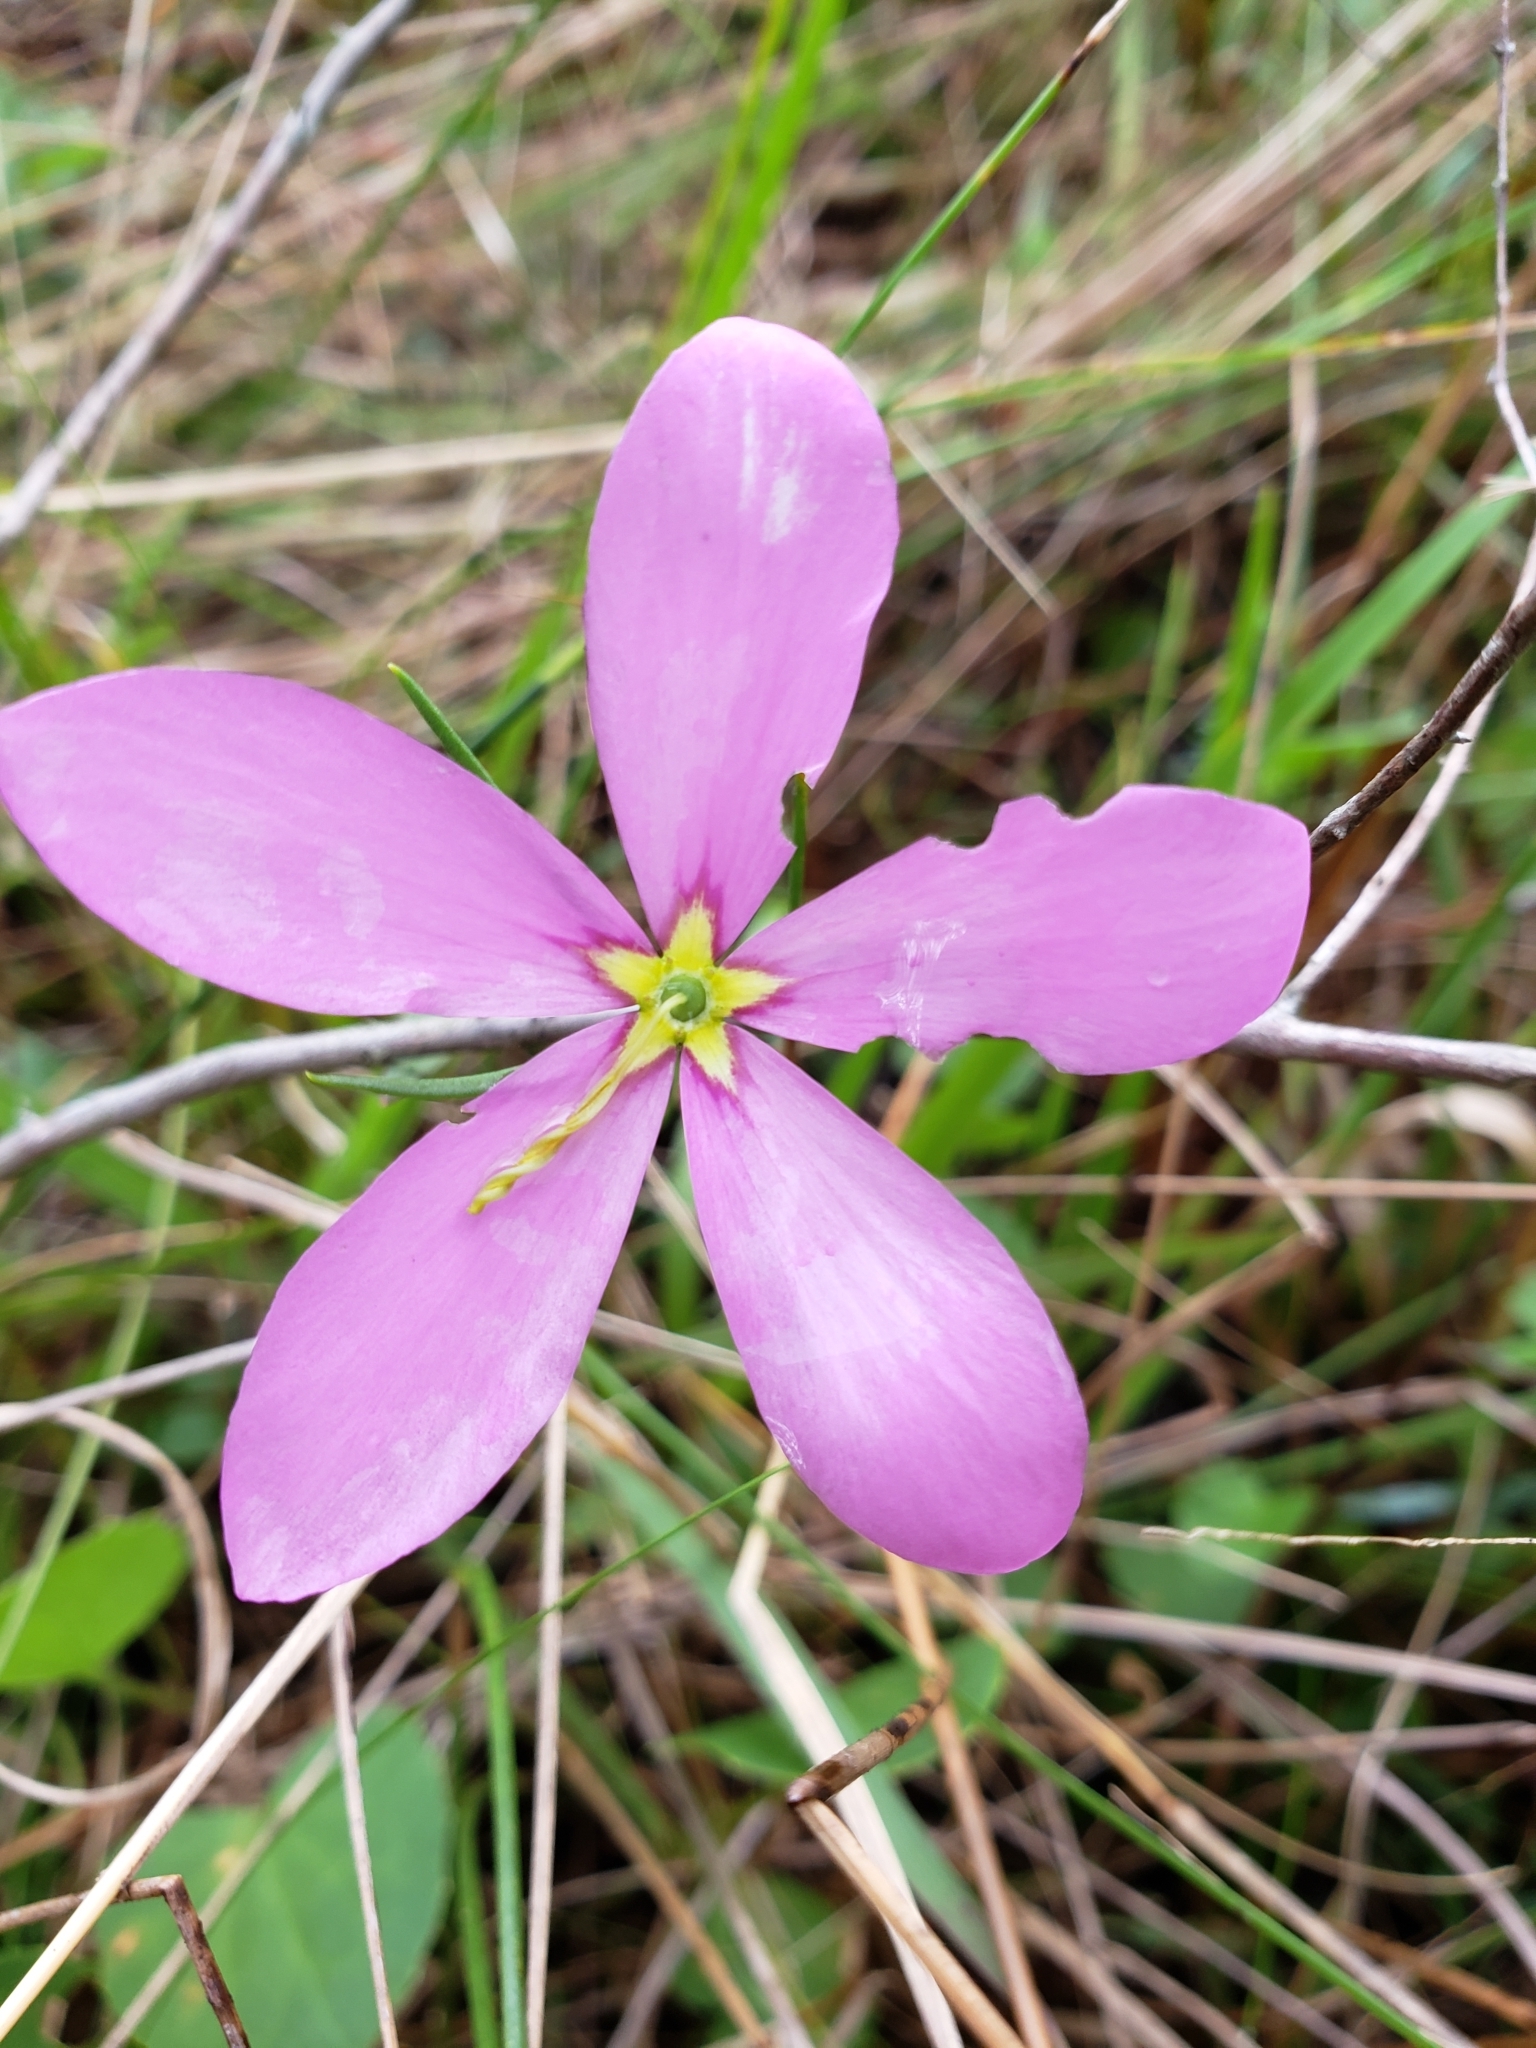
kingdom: Plantae
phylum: Tracheophyta
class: Magnoliopsida
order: Gentianales
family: Gentianaceae
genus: Sabatia
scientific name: Sabatia grandiflora
